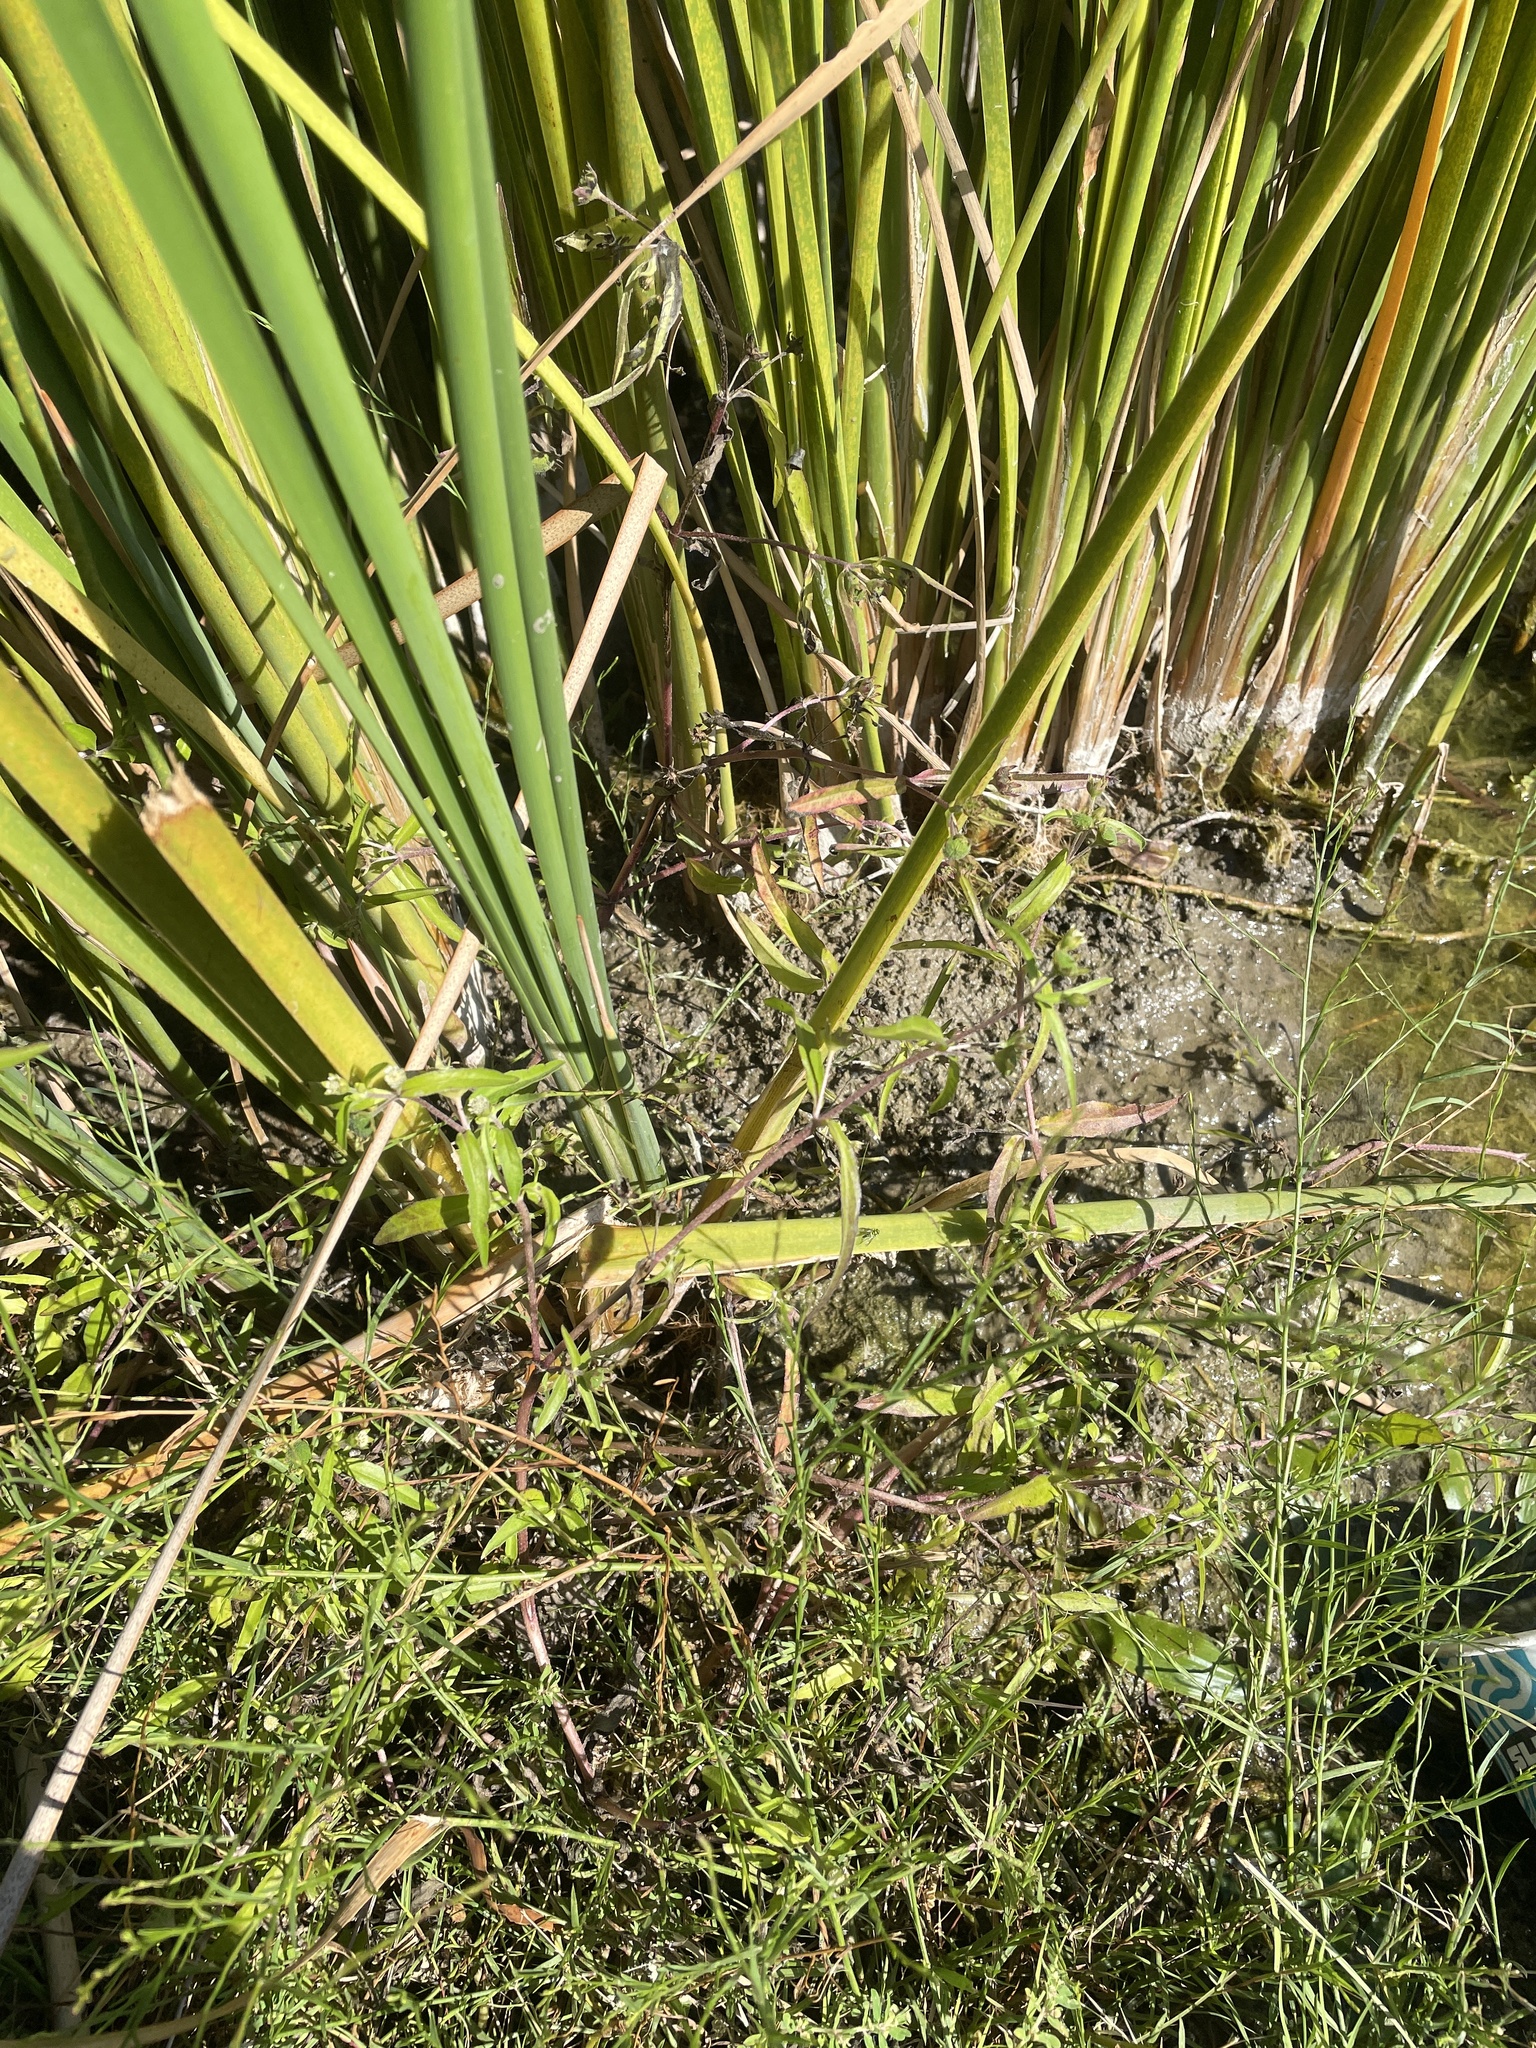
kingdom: Plantae
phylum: Tracheophyta
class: Magnoliopsida
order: Asterales
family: Asteraceae
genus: Eclipta
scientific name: Eclipta prostrata
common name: False daisy
